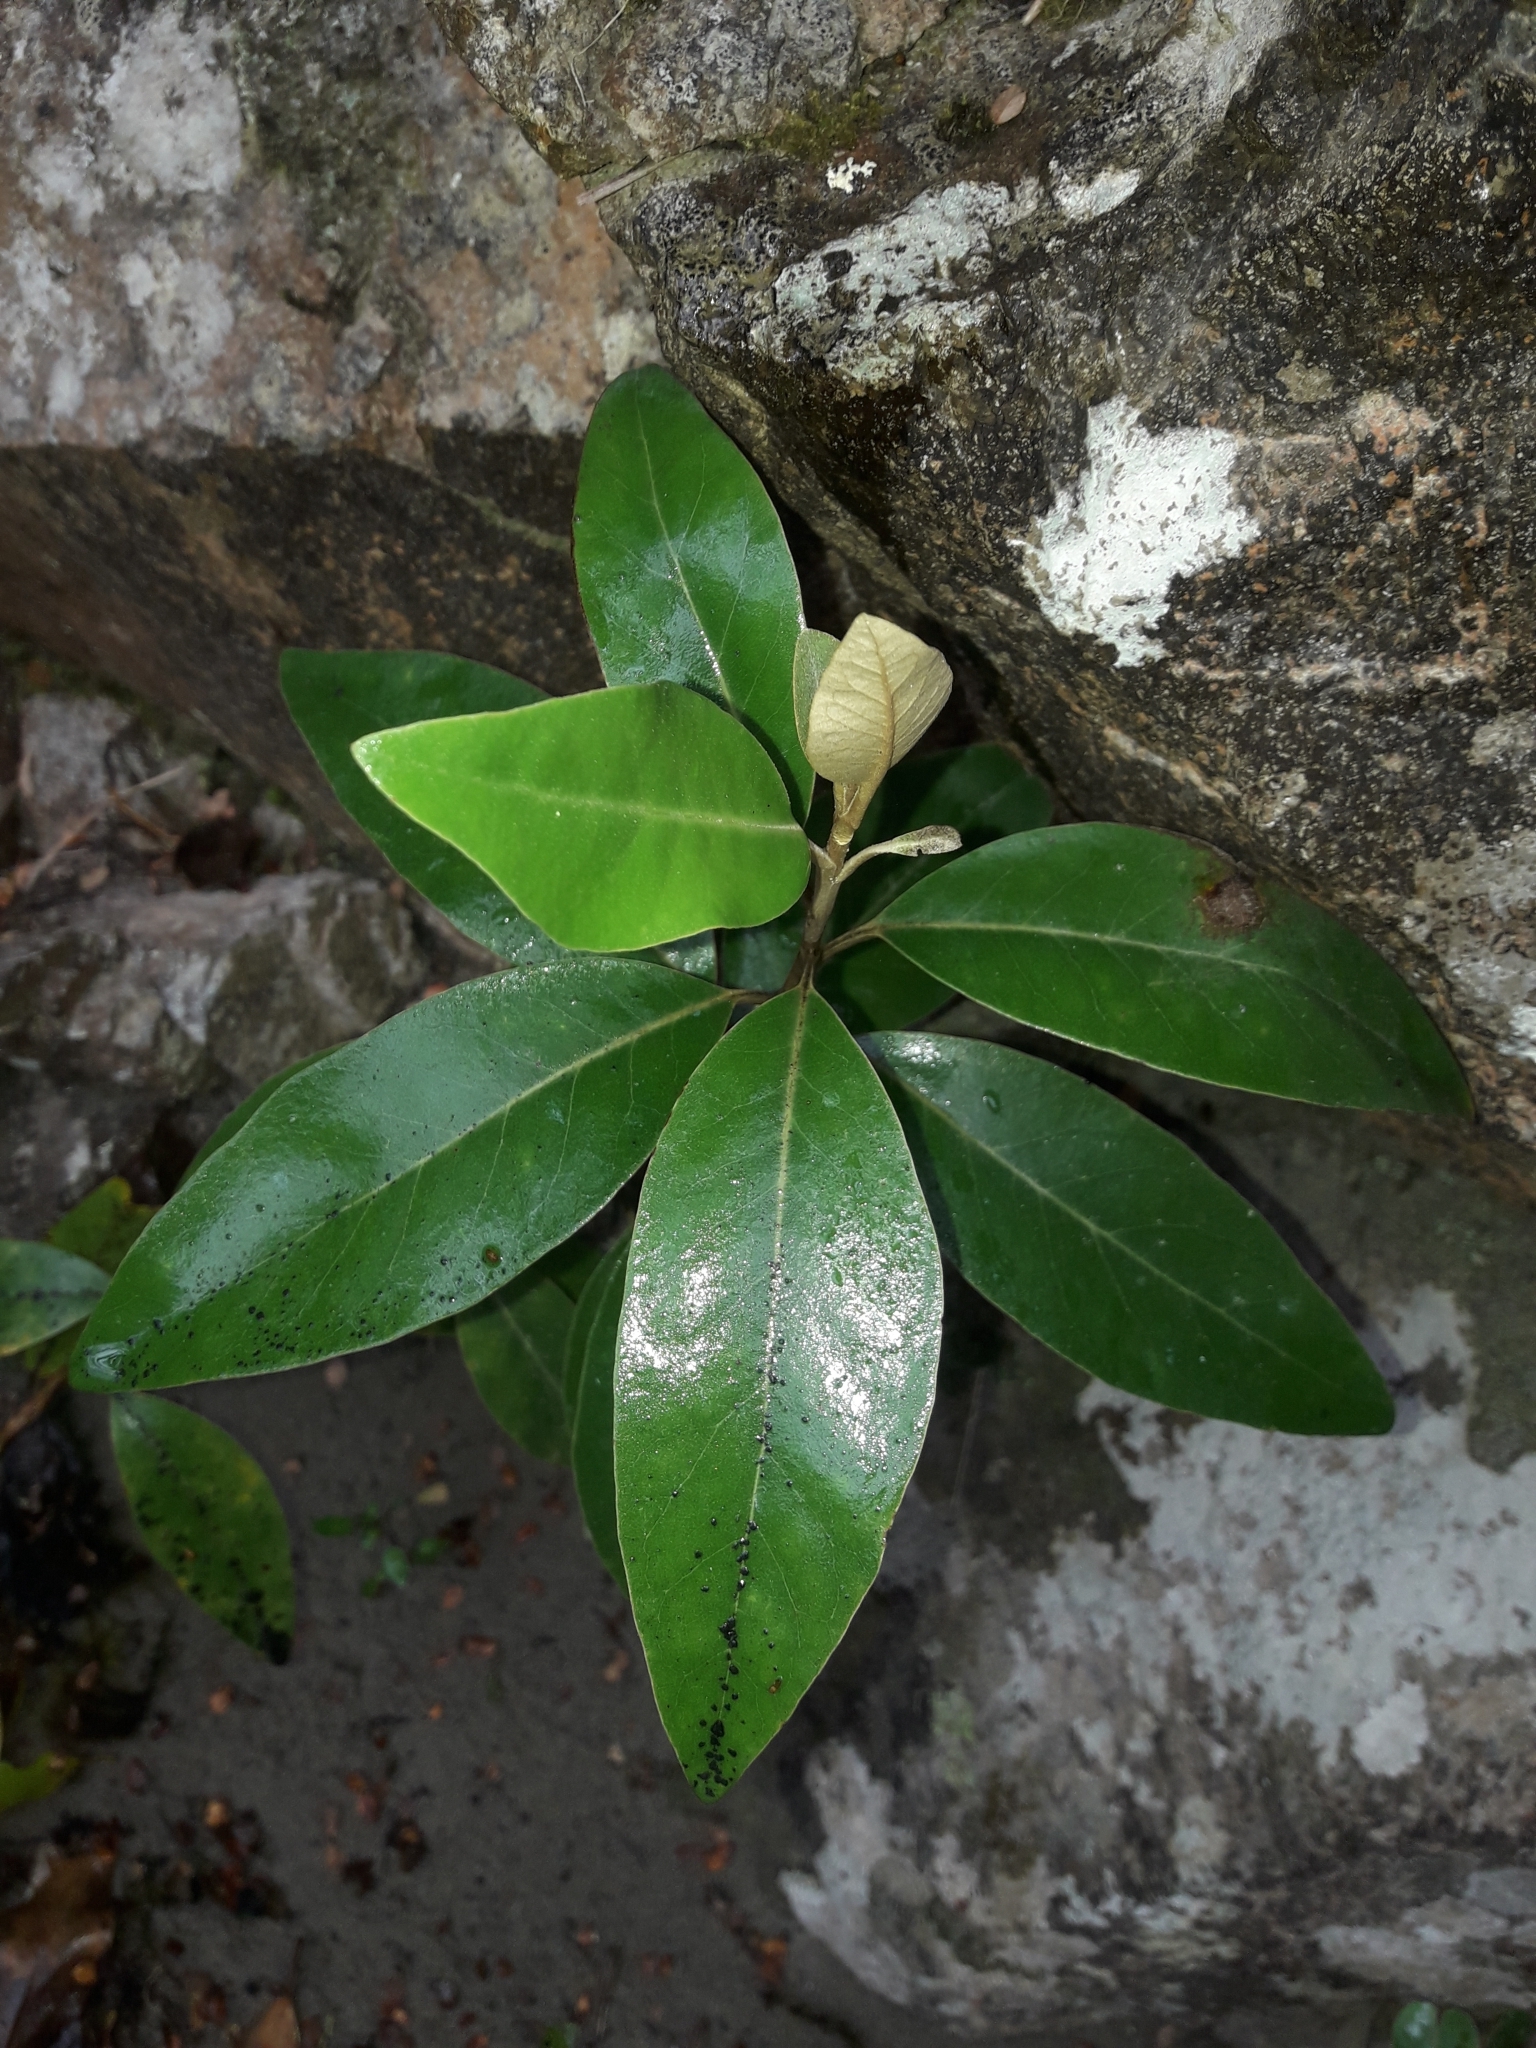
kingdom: Plantae
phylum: Tracheophyta
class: Magnoliopsida
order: Asterales
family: Asteraceae
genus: Olearia
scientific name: Olearia avicenniifolia
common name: Mangrove-leaf daisybush
